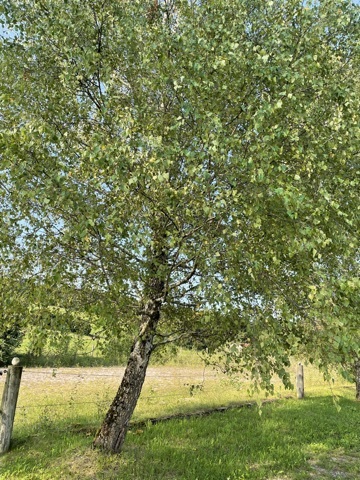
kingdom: Plantae
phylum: Tracheophyta
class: Magnoliopsida
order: Fagales
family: Betulaceae
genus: Betula
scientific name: Betula pendula
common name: Silver birch
